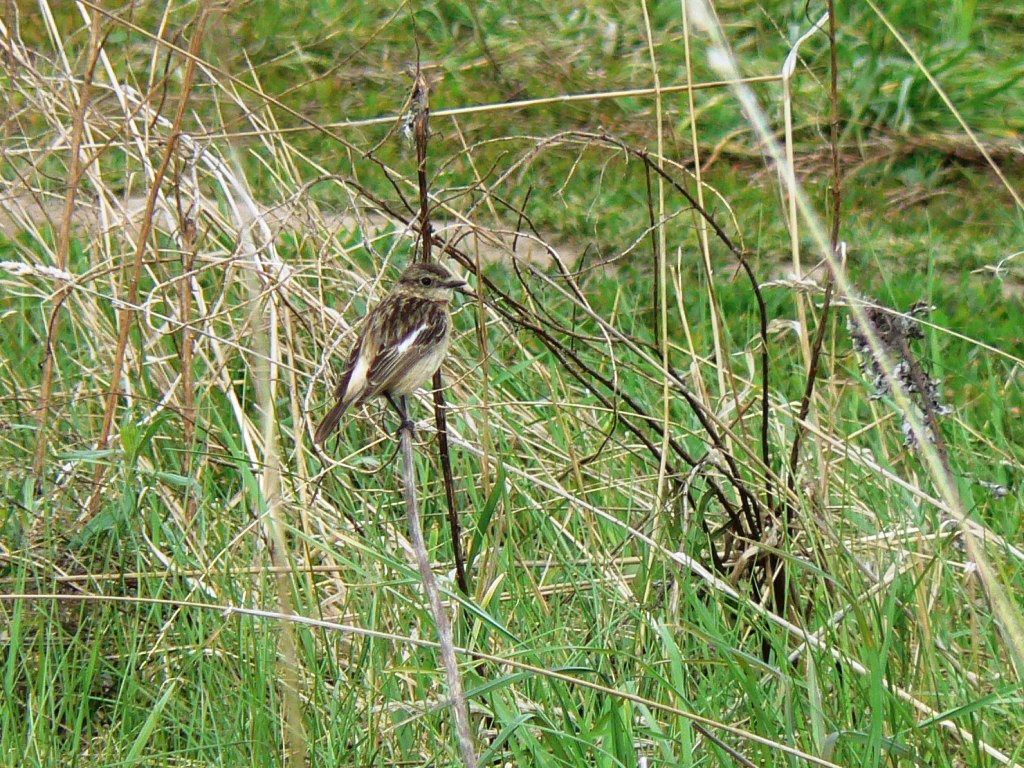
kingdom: Animalia
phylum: Chordata
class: Aves
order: Passeriformes
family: Muscicapidae
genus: Saxicola
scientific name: Saxicola maurus
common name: Siberian stonechat
